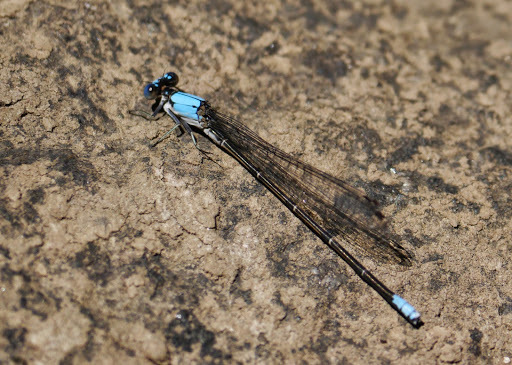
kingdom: Animalia
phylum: Arthropoda
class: Insecta
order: Odonata
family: Coenagrionidae
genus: Argia
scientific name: Argia apicalis
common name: Blue-fronted dancer
